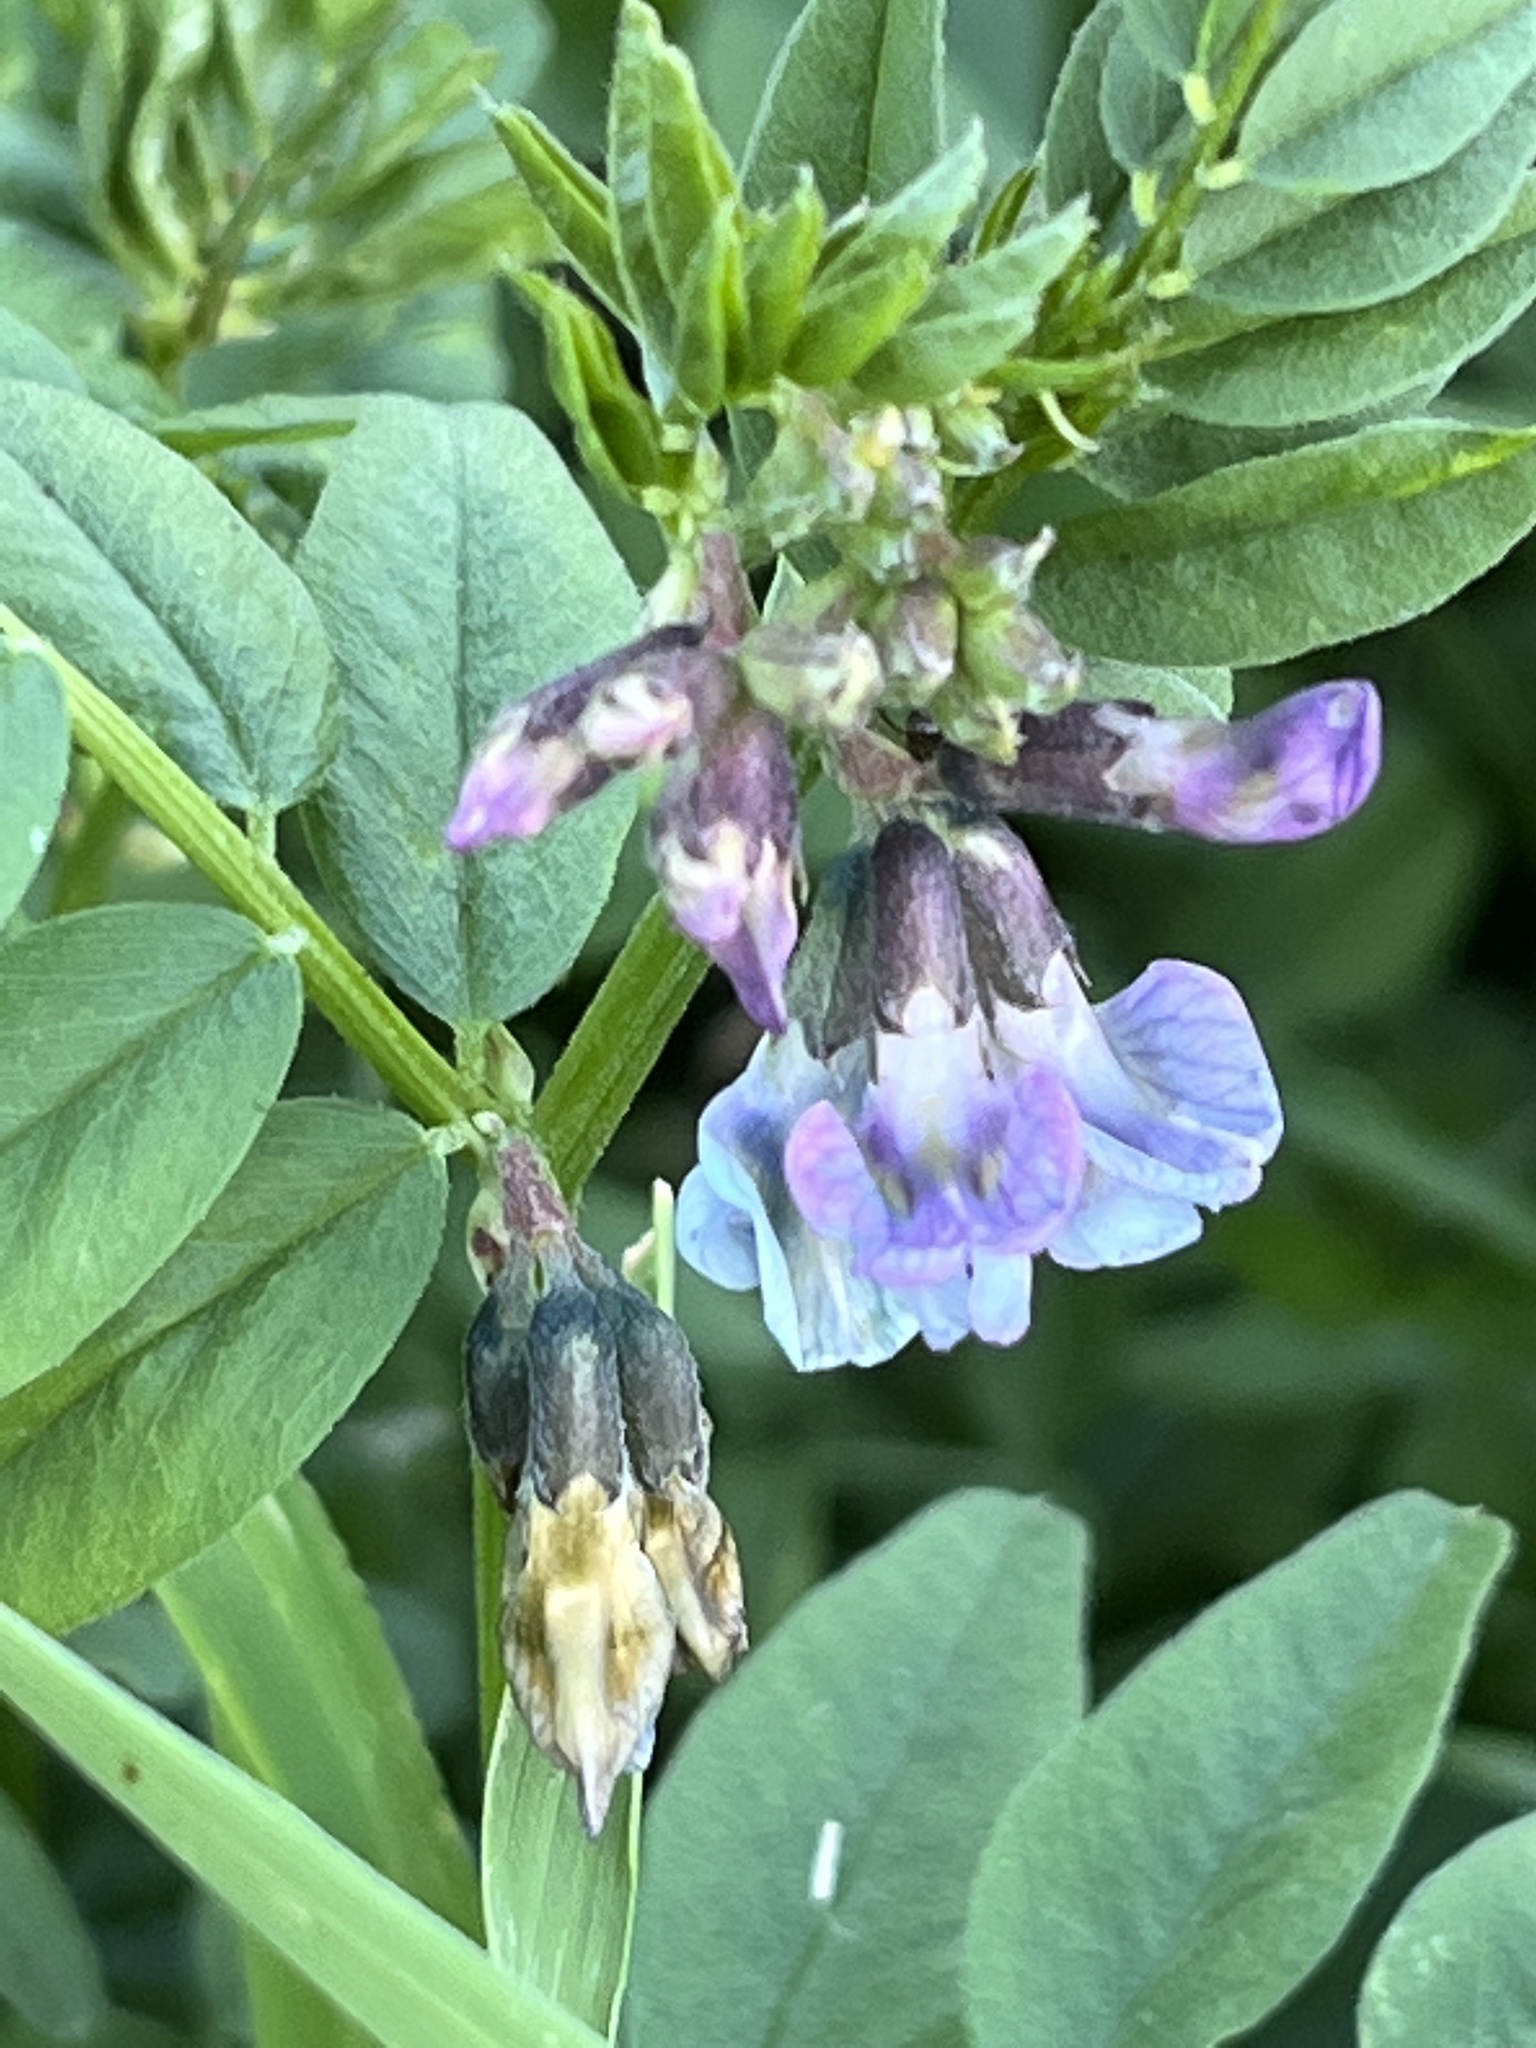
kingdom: Plantae
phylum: Tracheophyta
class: Magnoliopsida
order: Fabales
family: Fabaceae
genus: Vicia
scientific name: Vicia sepium
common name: Bush vetch
